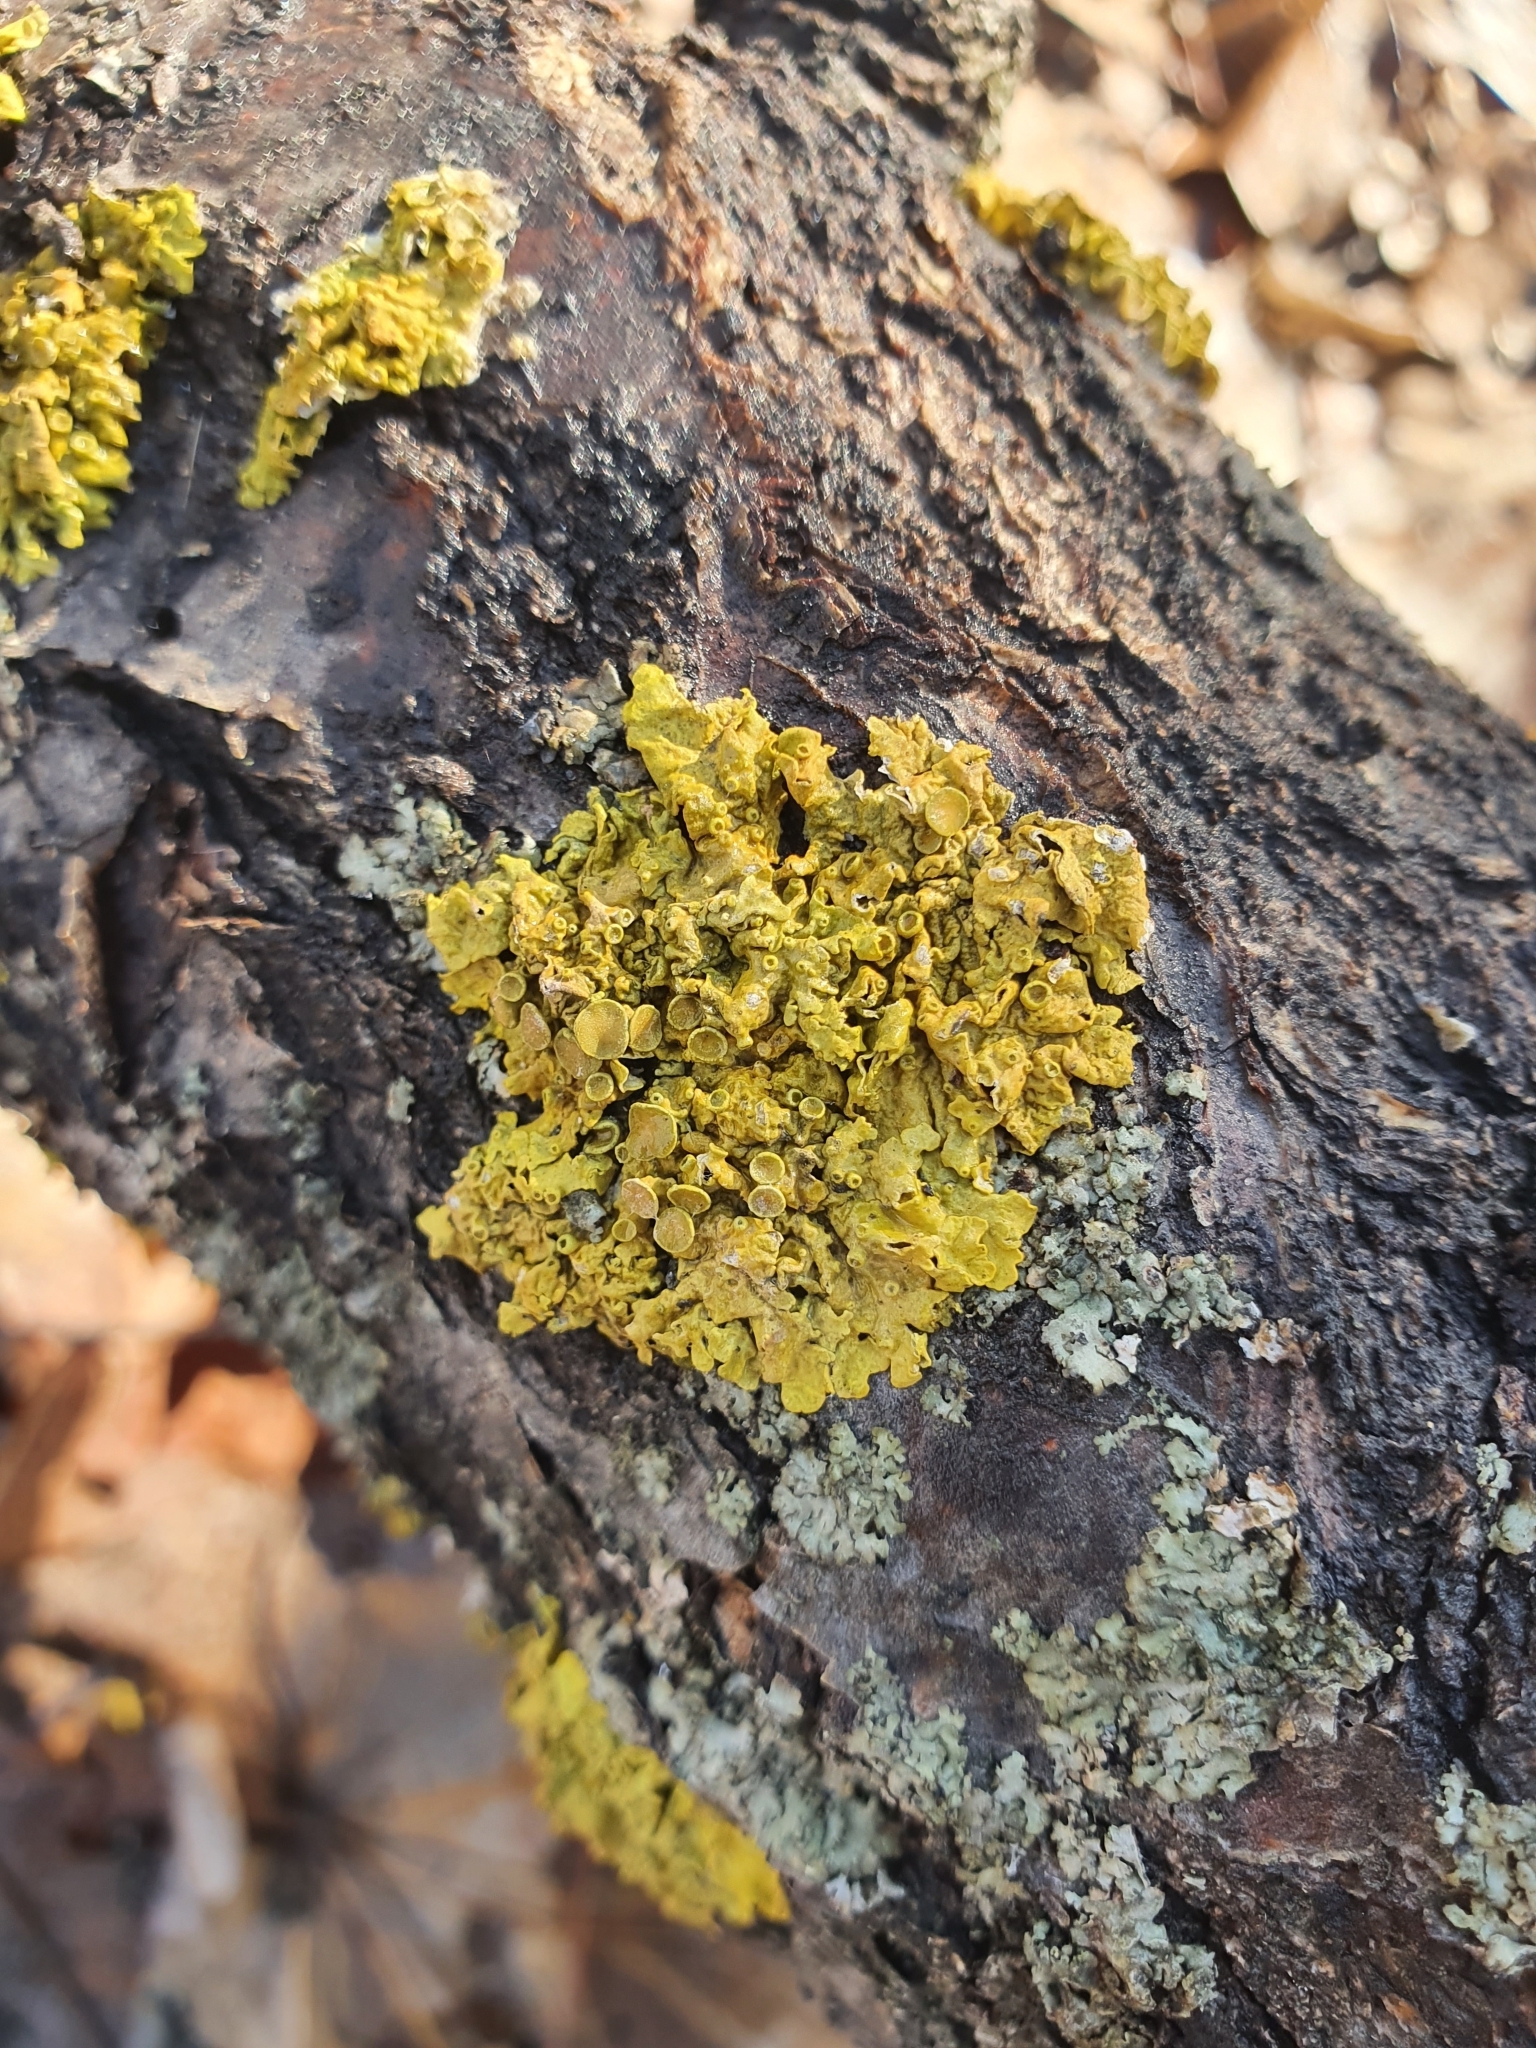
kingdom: Fungi
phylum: Ascomycota
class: Lecanoromycetes
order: Teloschistales
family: Teloschistaceae
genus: Xanthoria
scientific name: Xanthoria parietina
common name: Common orange lichen
